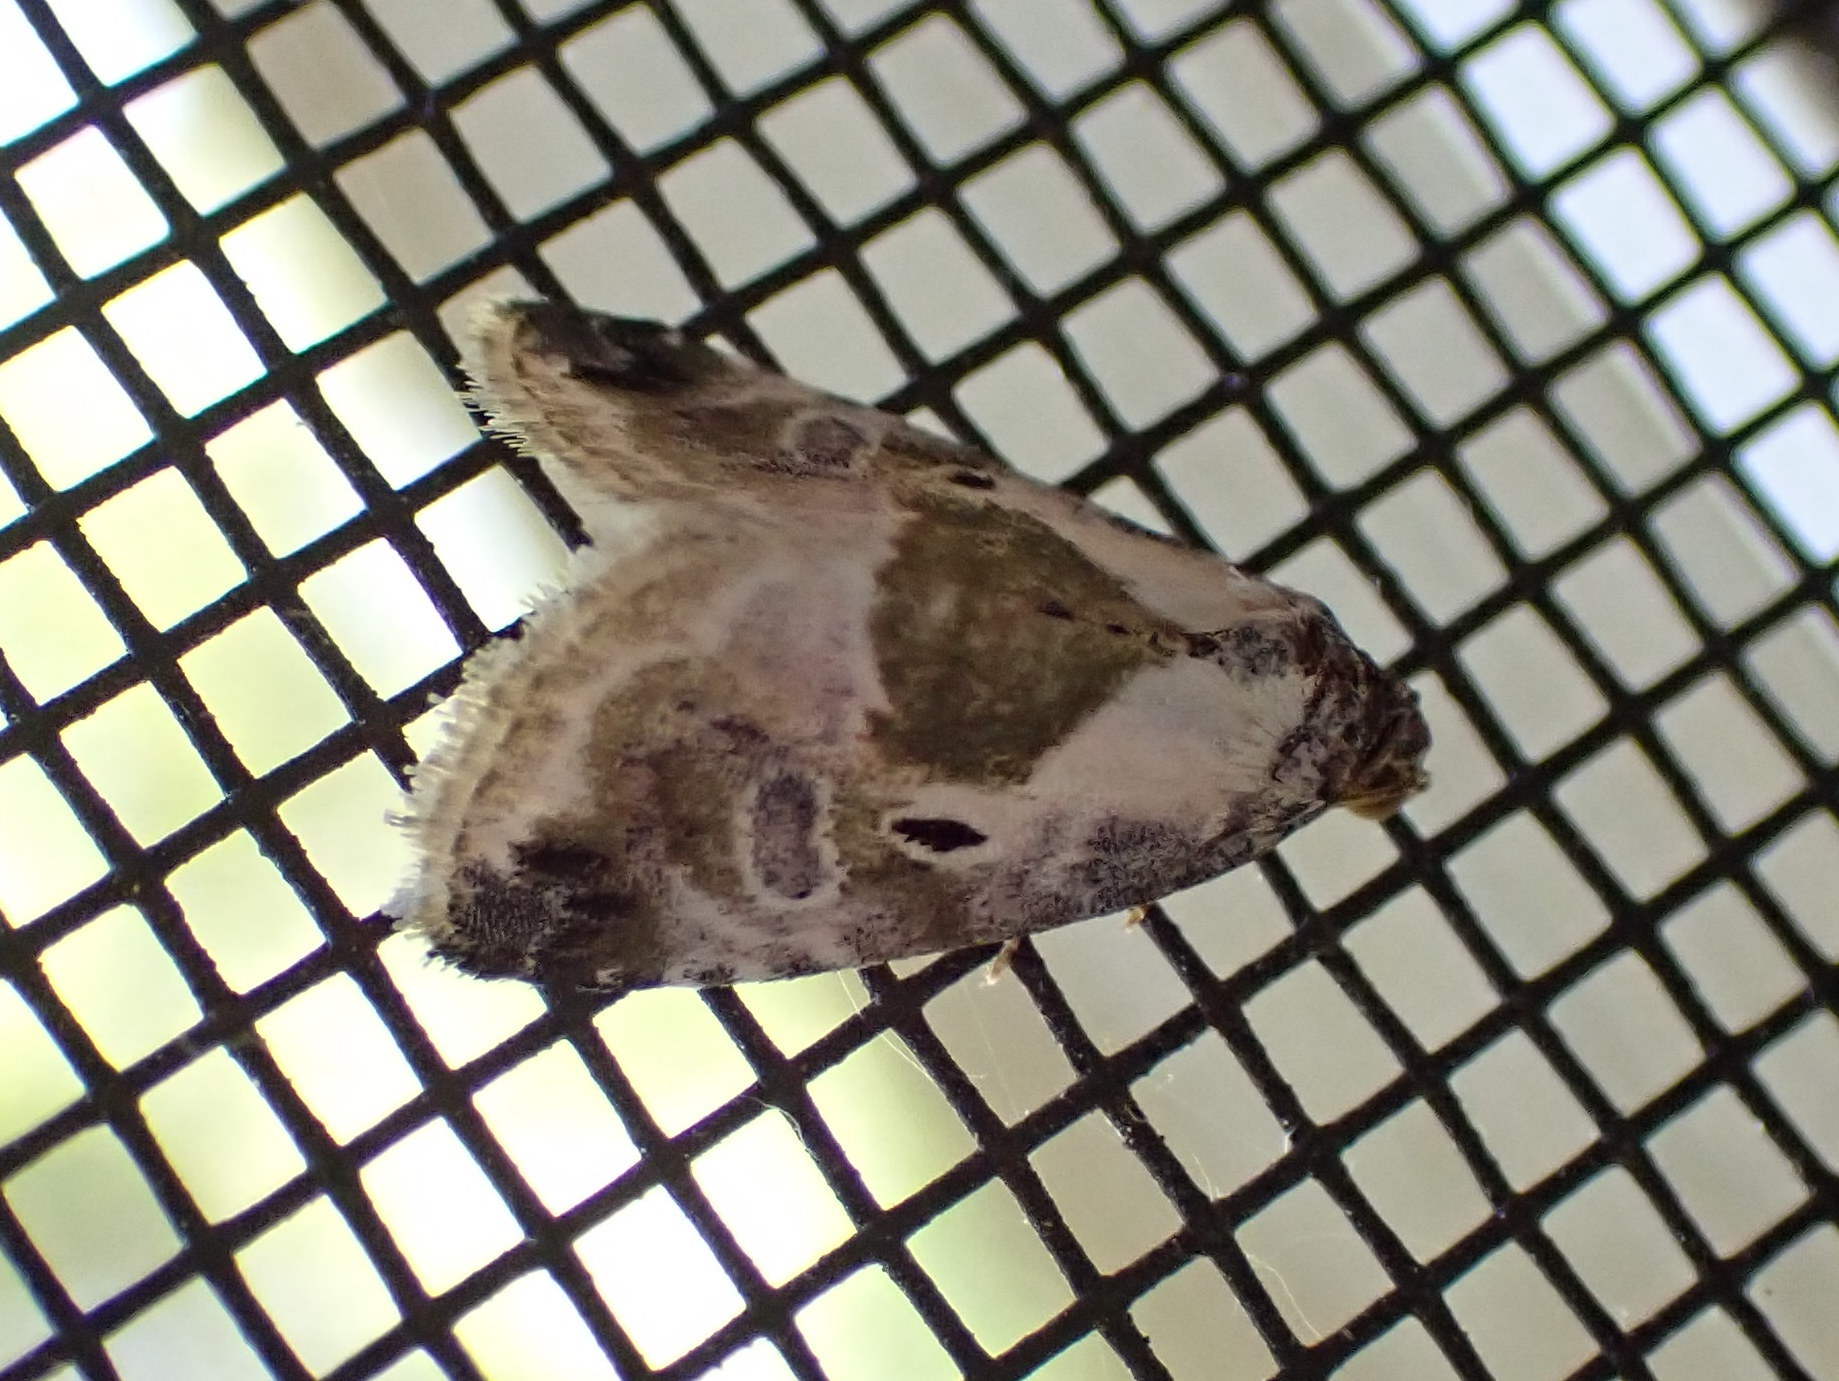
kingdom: Animalia
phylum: Arthropoda
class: Insecta
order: Lepidoptera
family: Noctuidae
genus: Maliattha
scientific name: Maliattha synochitis
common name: Black-dotted glyph
